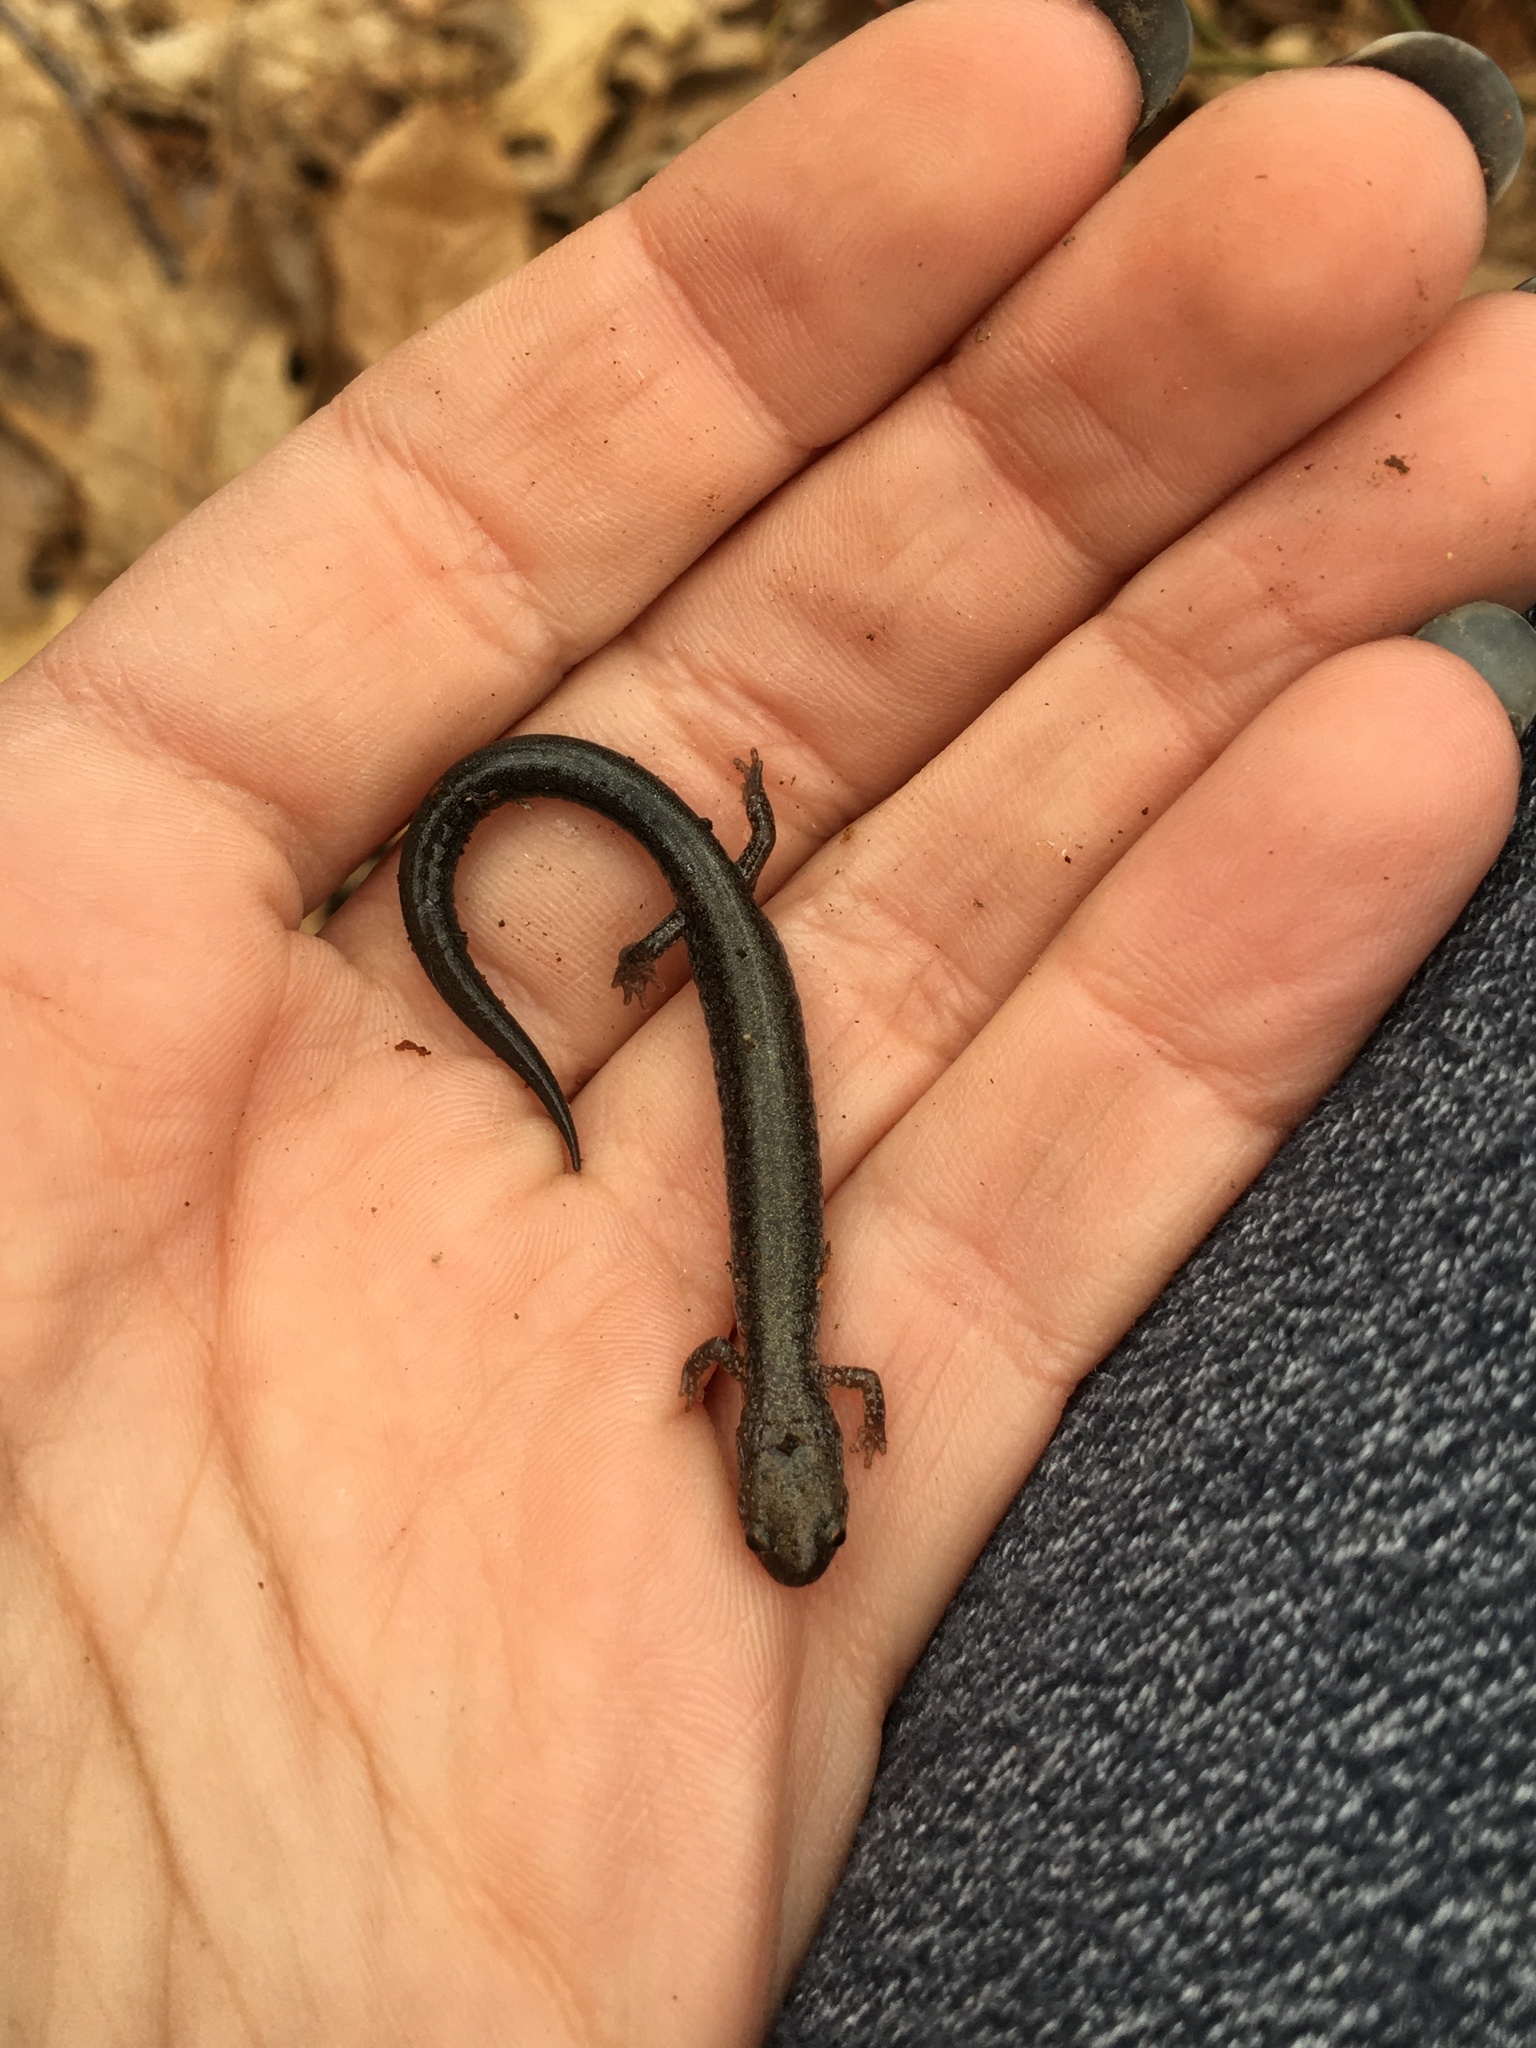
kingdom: Animalia
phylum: Chordata
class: Amphibia
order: Caudata
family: Plethodontidae
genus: Plethodon
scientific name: Plethodon cinereus
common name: Redback salamander
